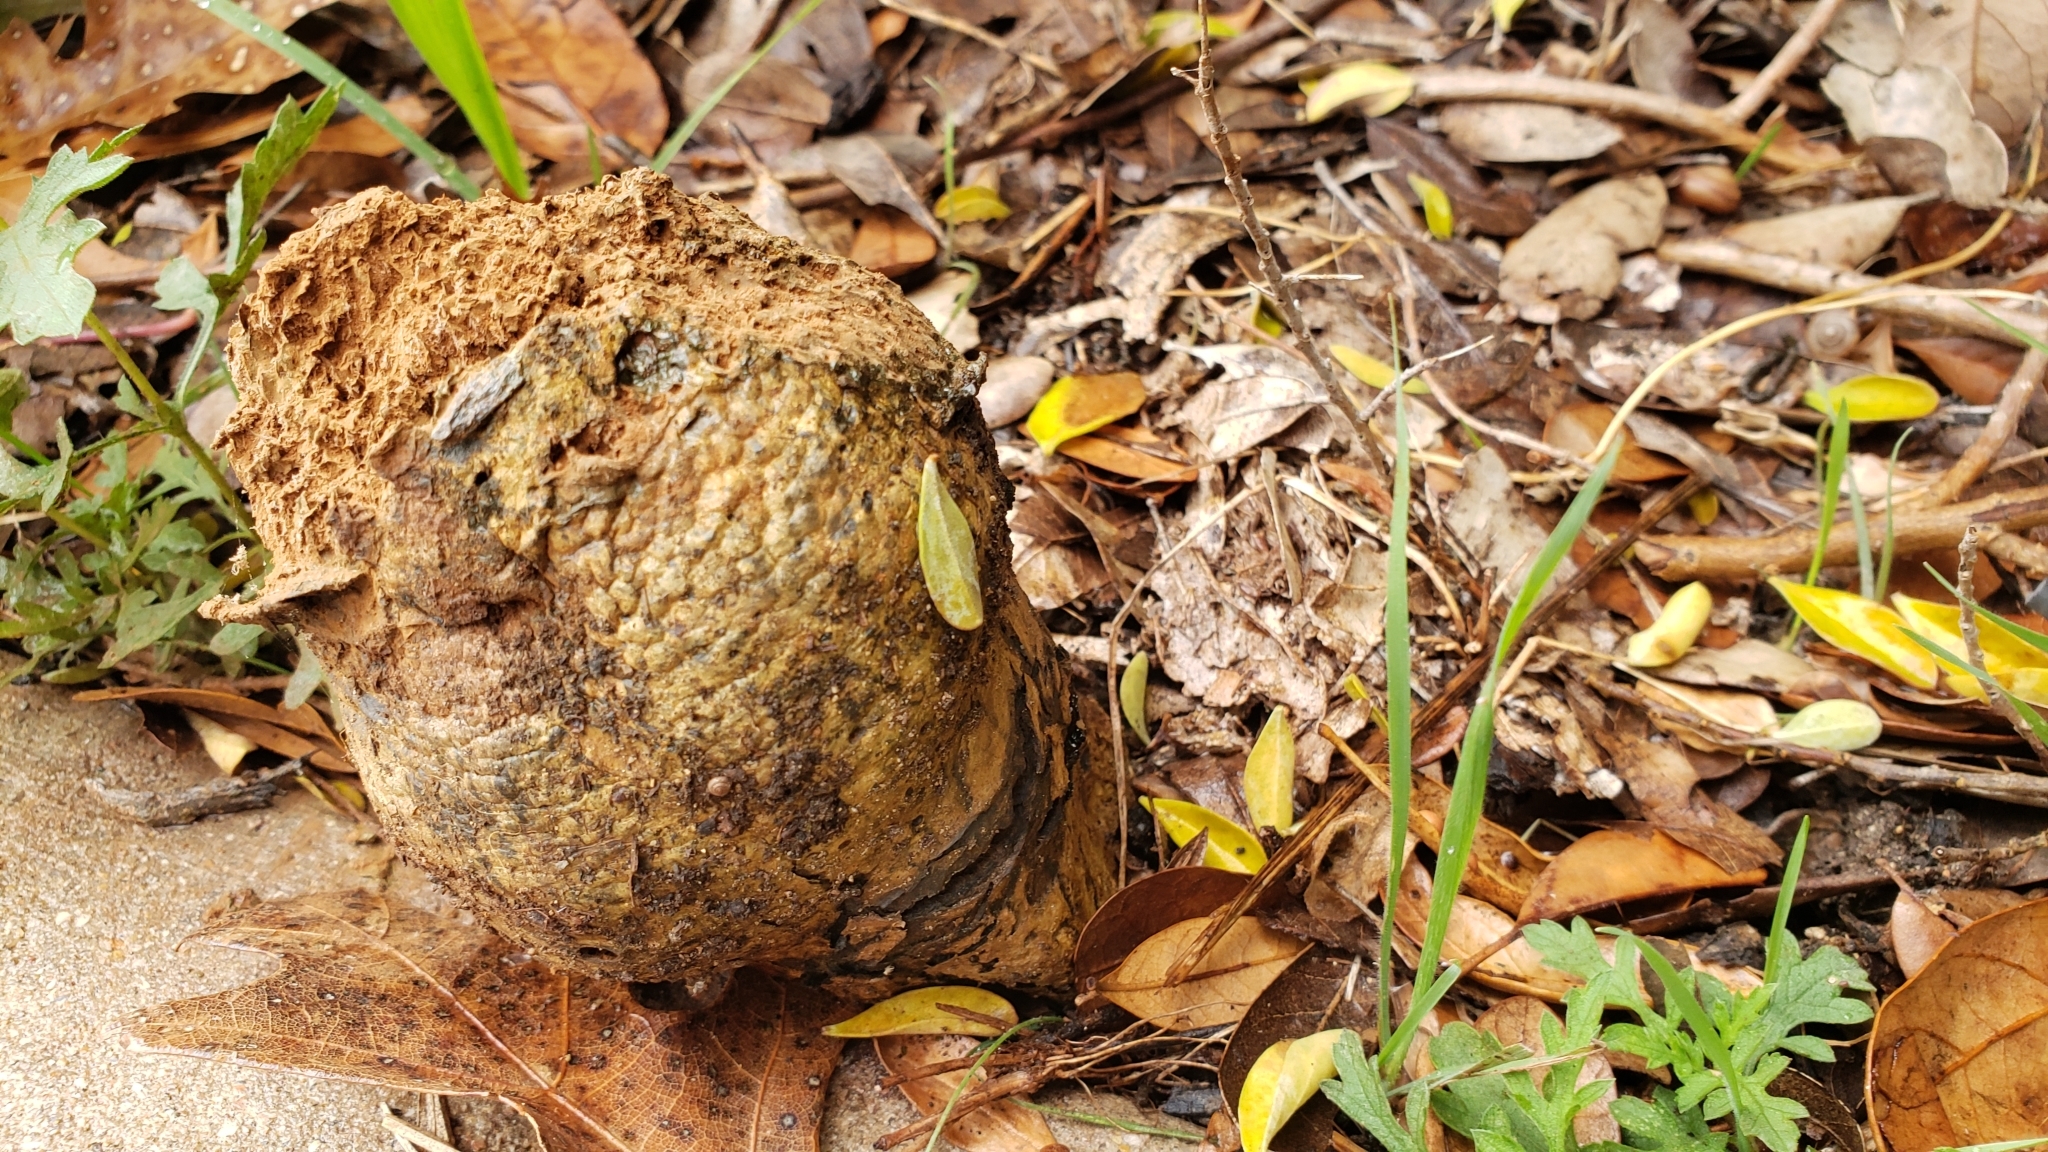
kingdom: Fungi
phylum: Basidiomycota
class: Agaricomycetes
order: Boletales
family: Sclerodermataceae
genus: Pisolithus
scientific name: Pisolithus arenarius
